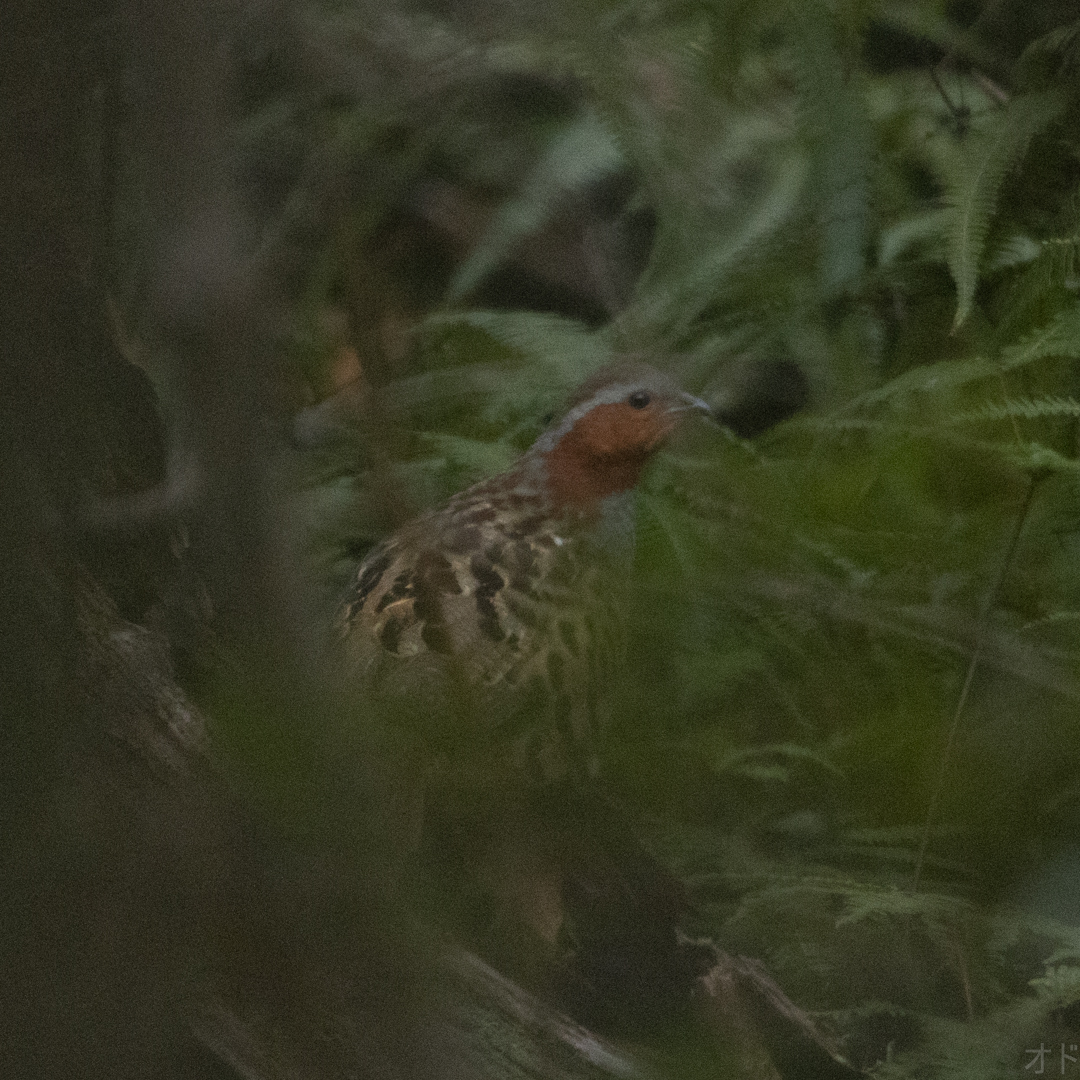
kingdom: Animalia
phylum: Chordata
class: Aves
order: Galliformes
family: Phasianidae
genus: Bambusicola
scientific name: Bambusicola thoracicus
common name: Chinese bamboo partridge
